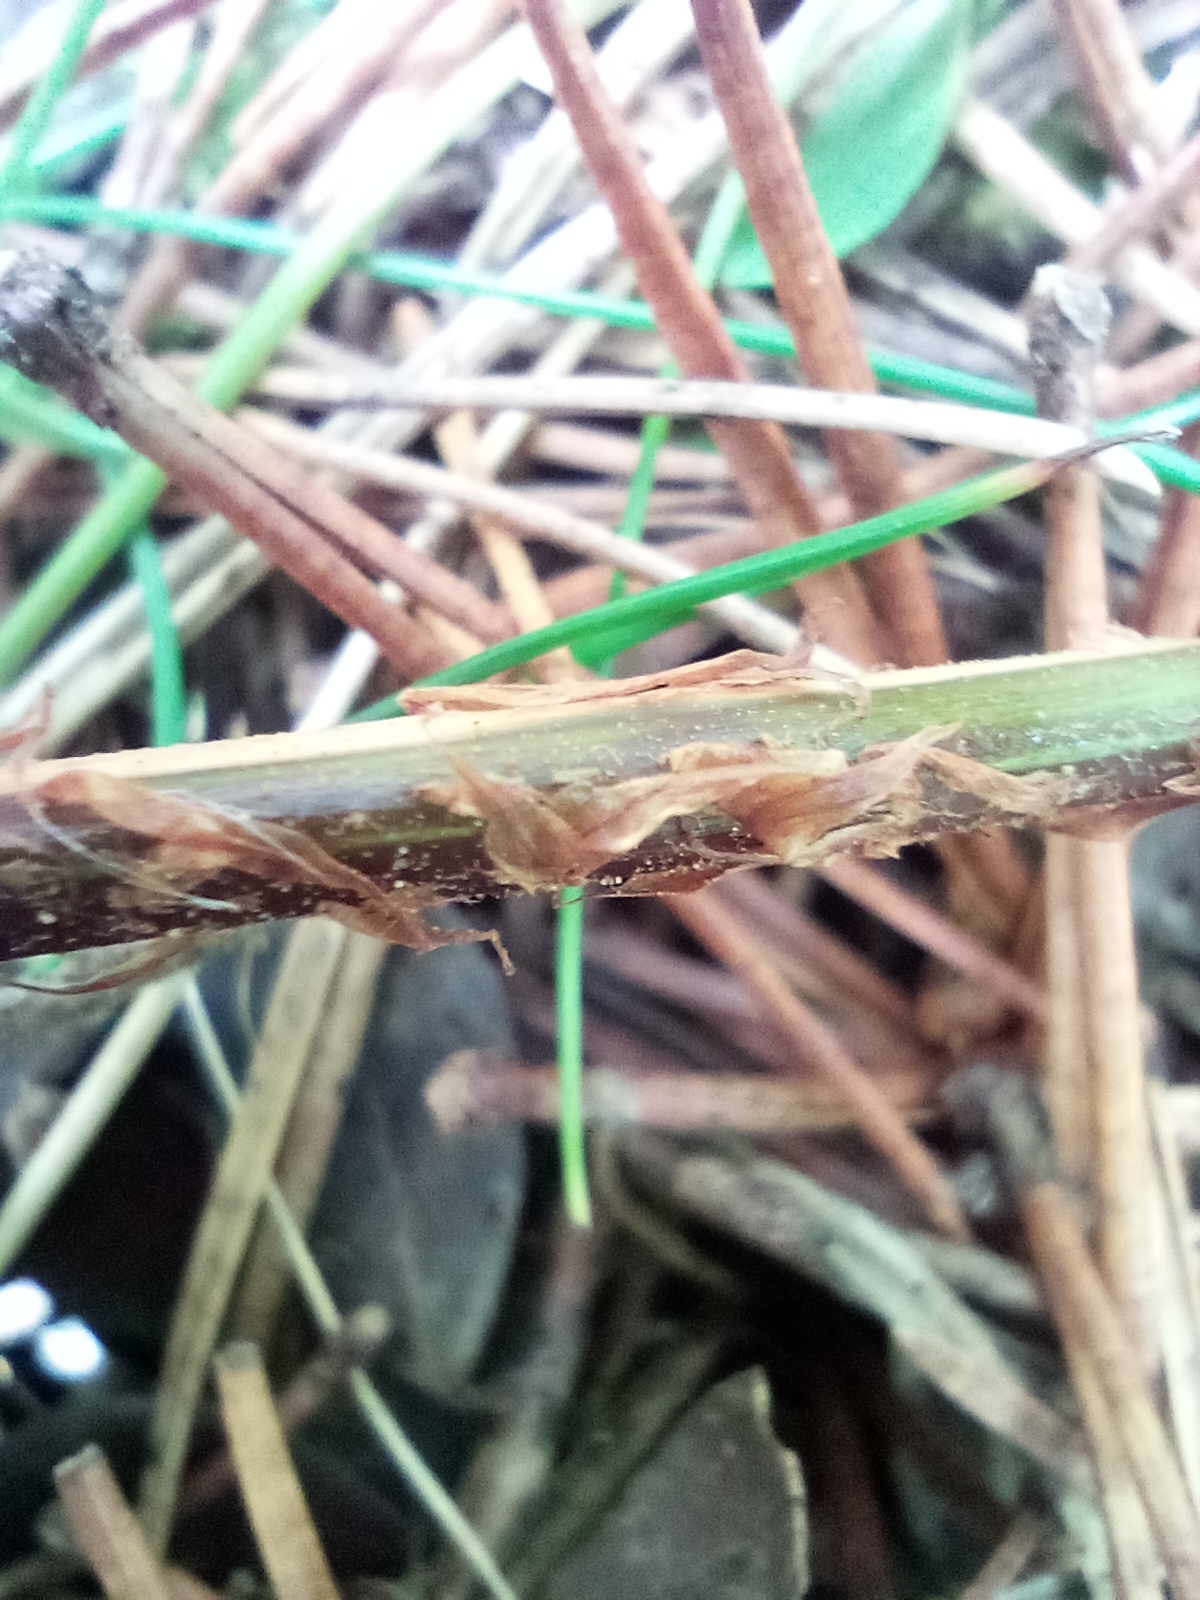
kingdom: Plantae
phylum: Tracheophyta
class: Polypodiopsida
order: Polypodiales
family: Dryopteridaceae
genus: Dryopteris
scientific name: Dryopteris dilatata
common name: Broad buckler-fern
